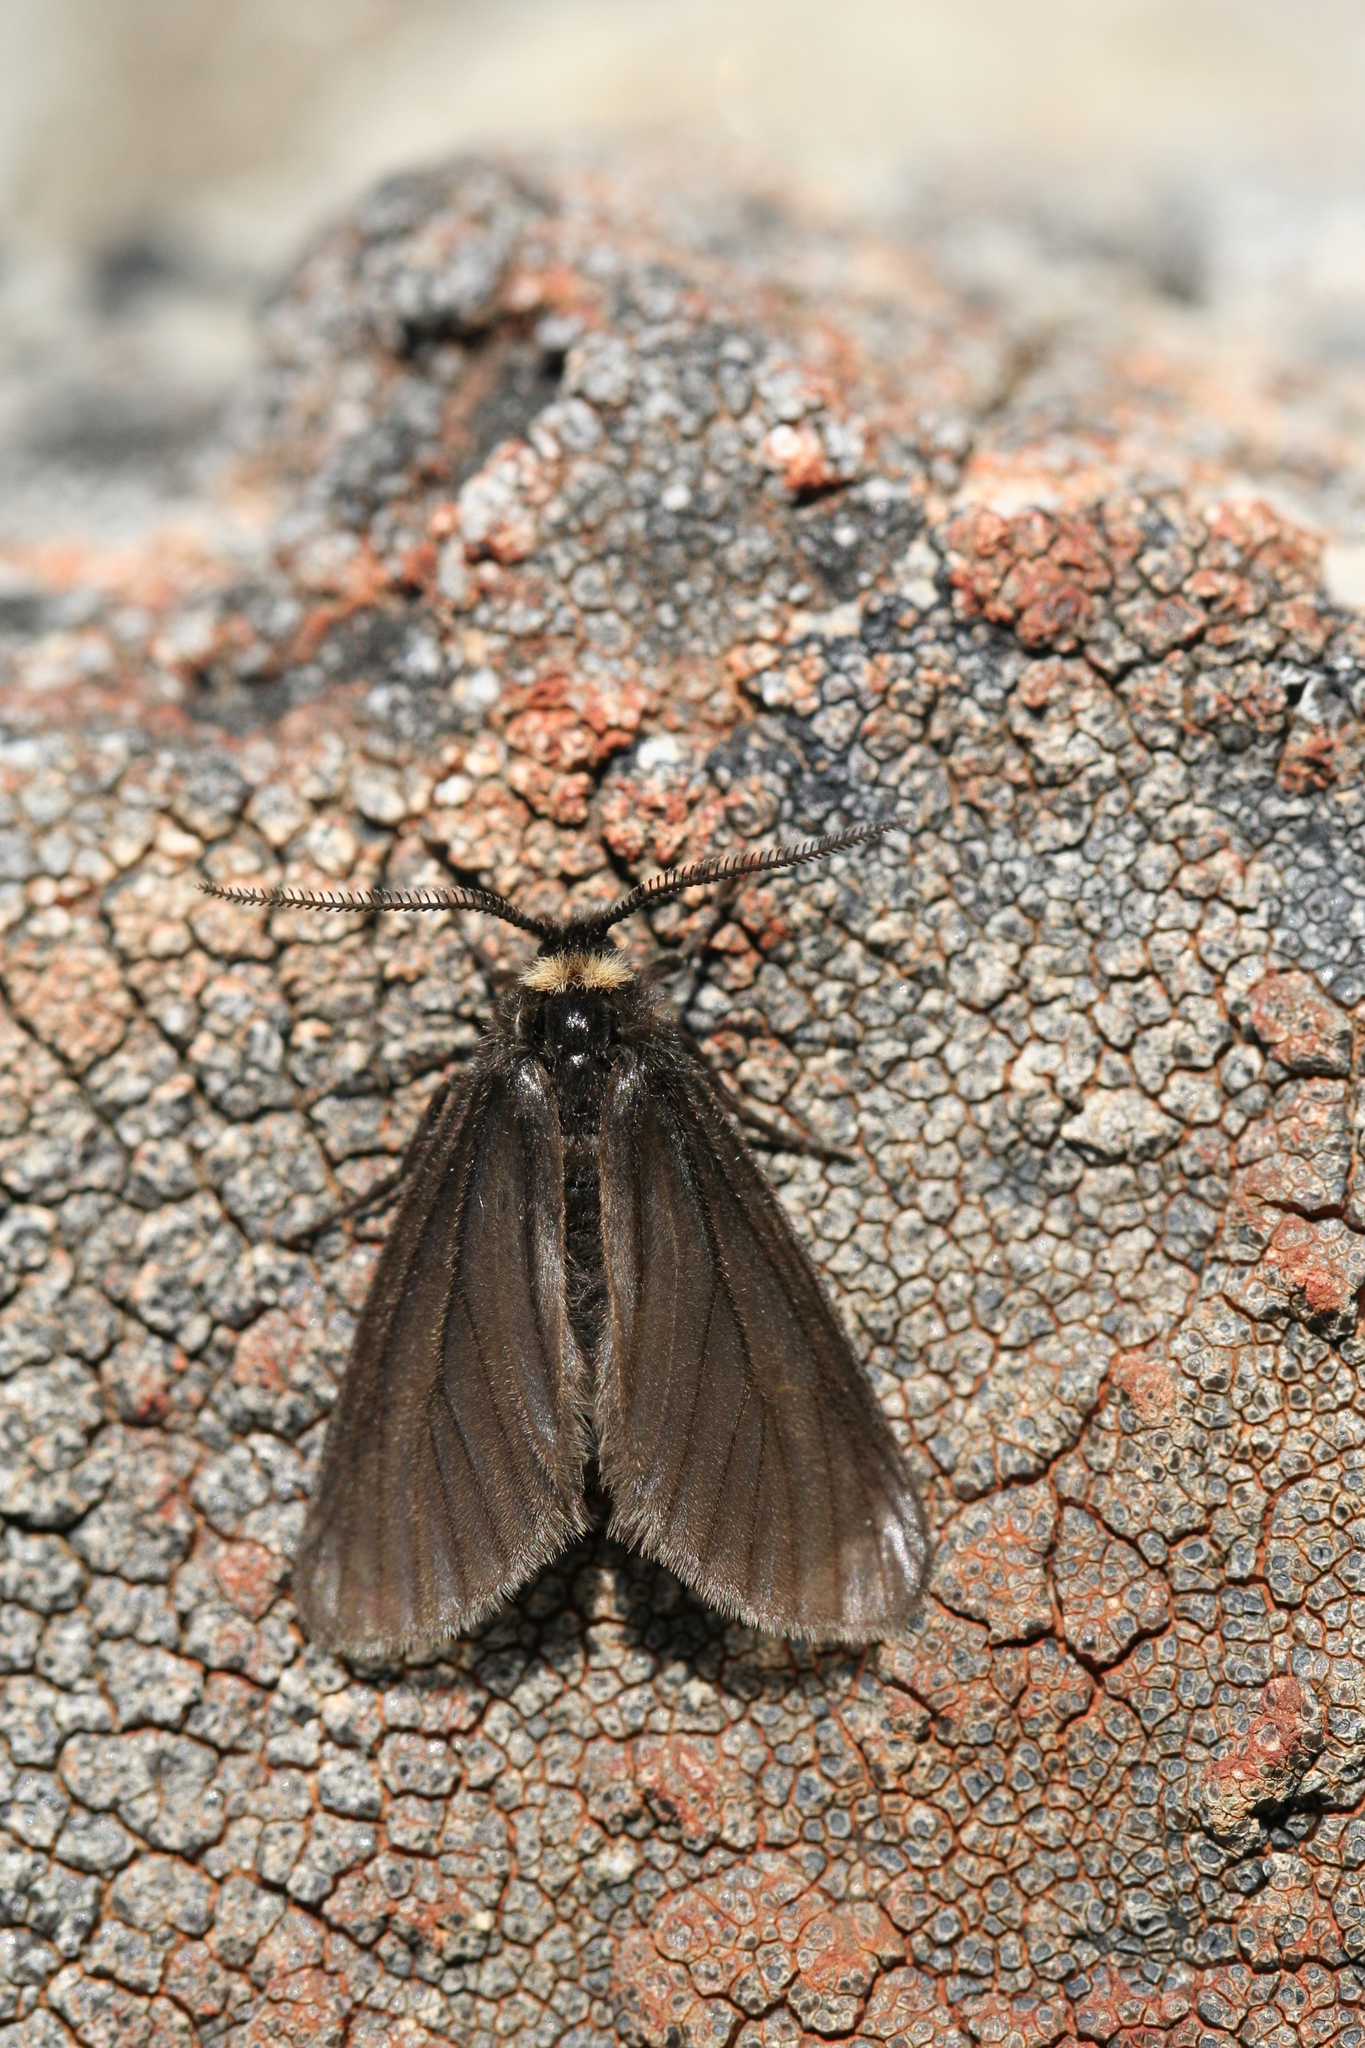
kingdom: Animalia
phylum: Arthropoda
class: Insecta
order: Lepidoptera
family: Erebidae
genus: Acsala
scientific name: Acsala anomala
